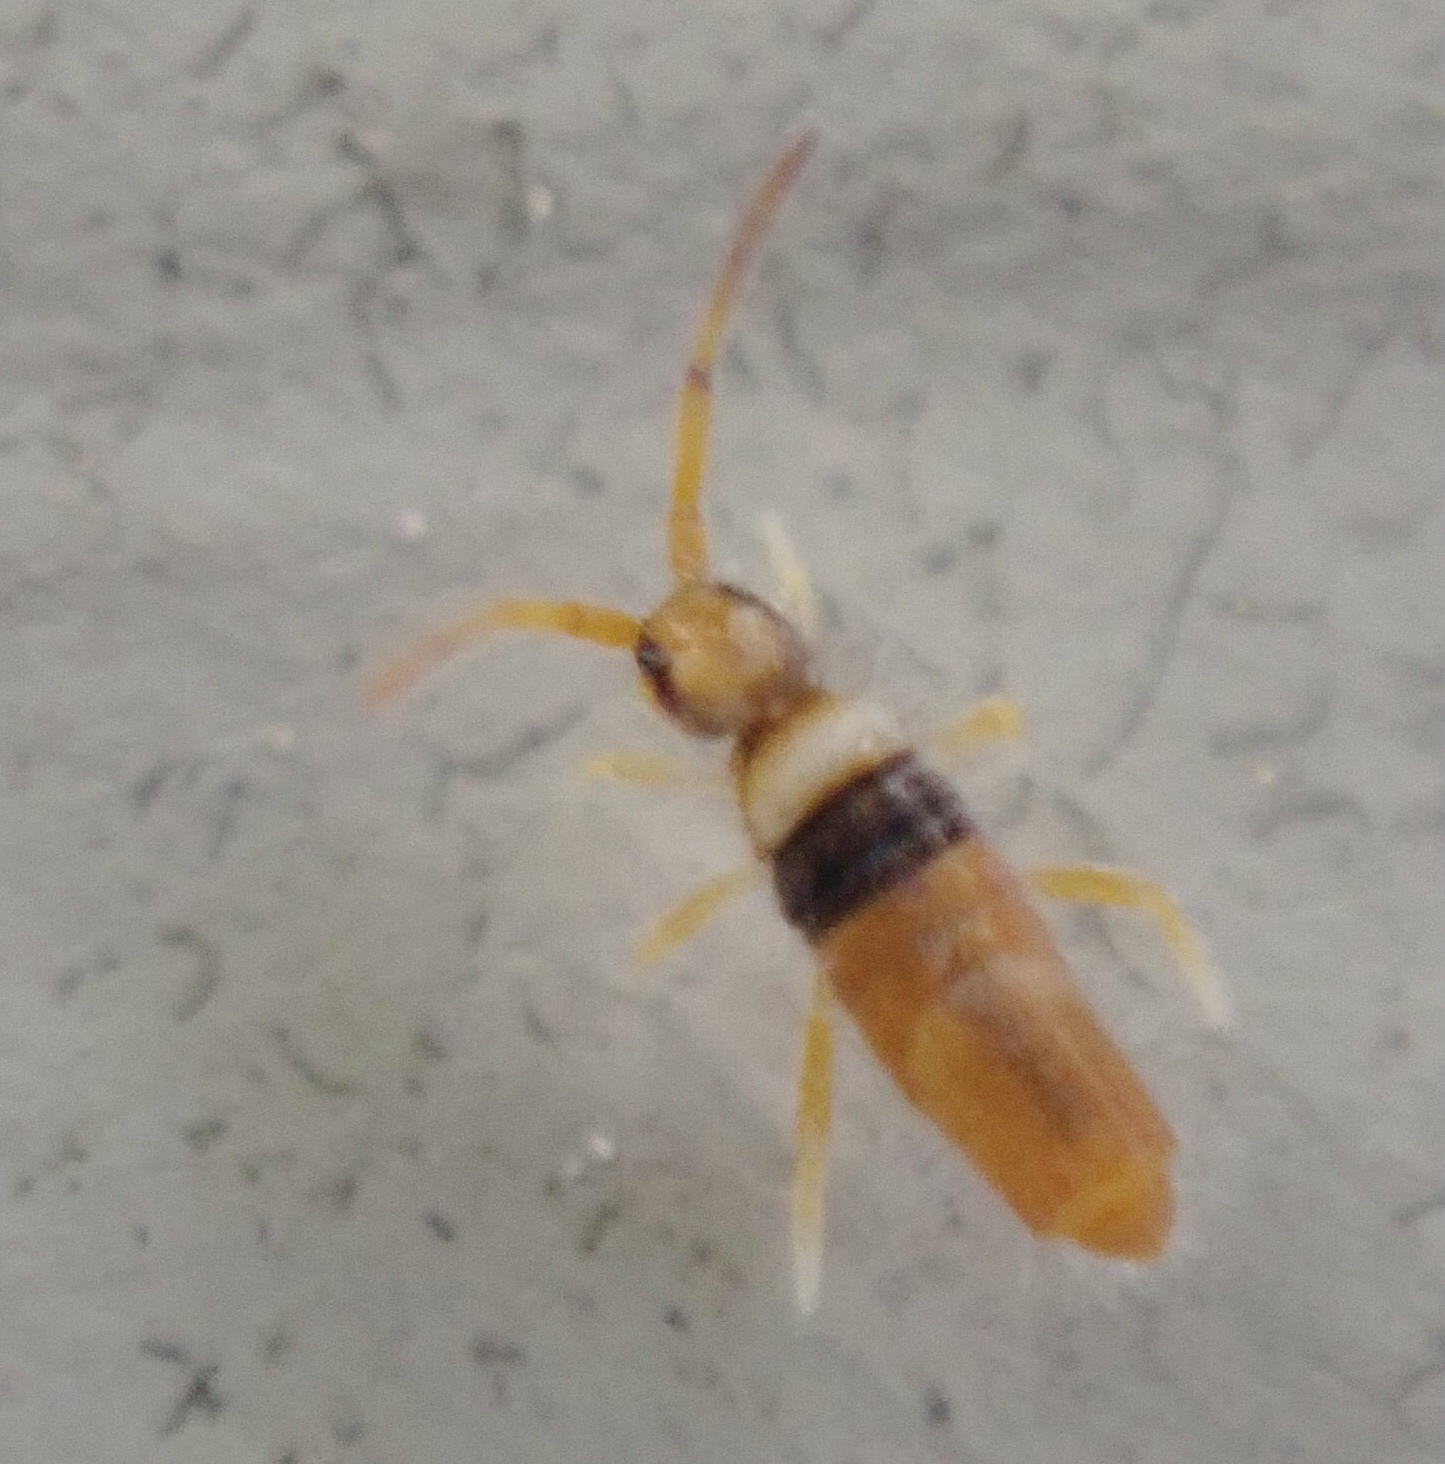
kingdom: Animalia
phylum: Arthropoda
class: Collembola
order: Entomobryomorpha
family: Entomobryidae
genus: Entomobrya
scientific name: Entomobrya atrocincta
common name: Springtail
